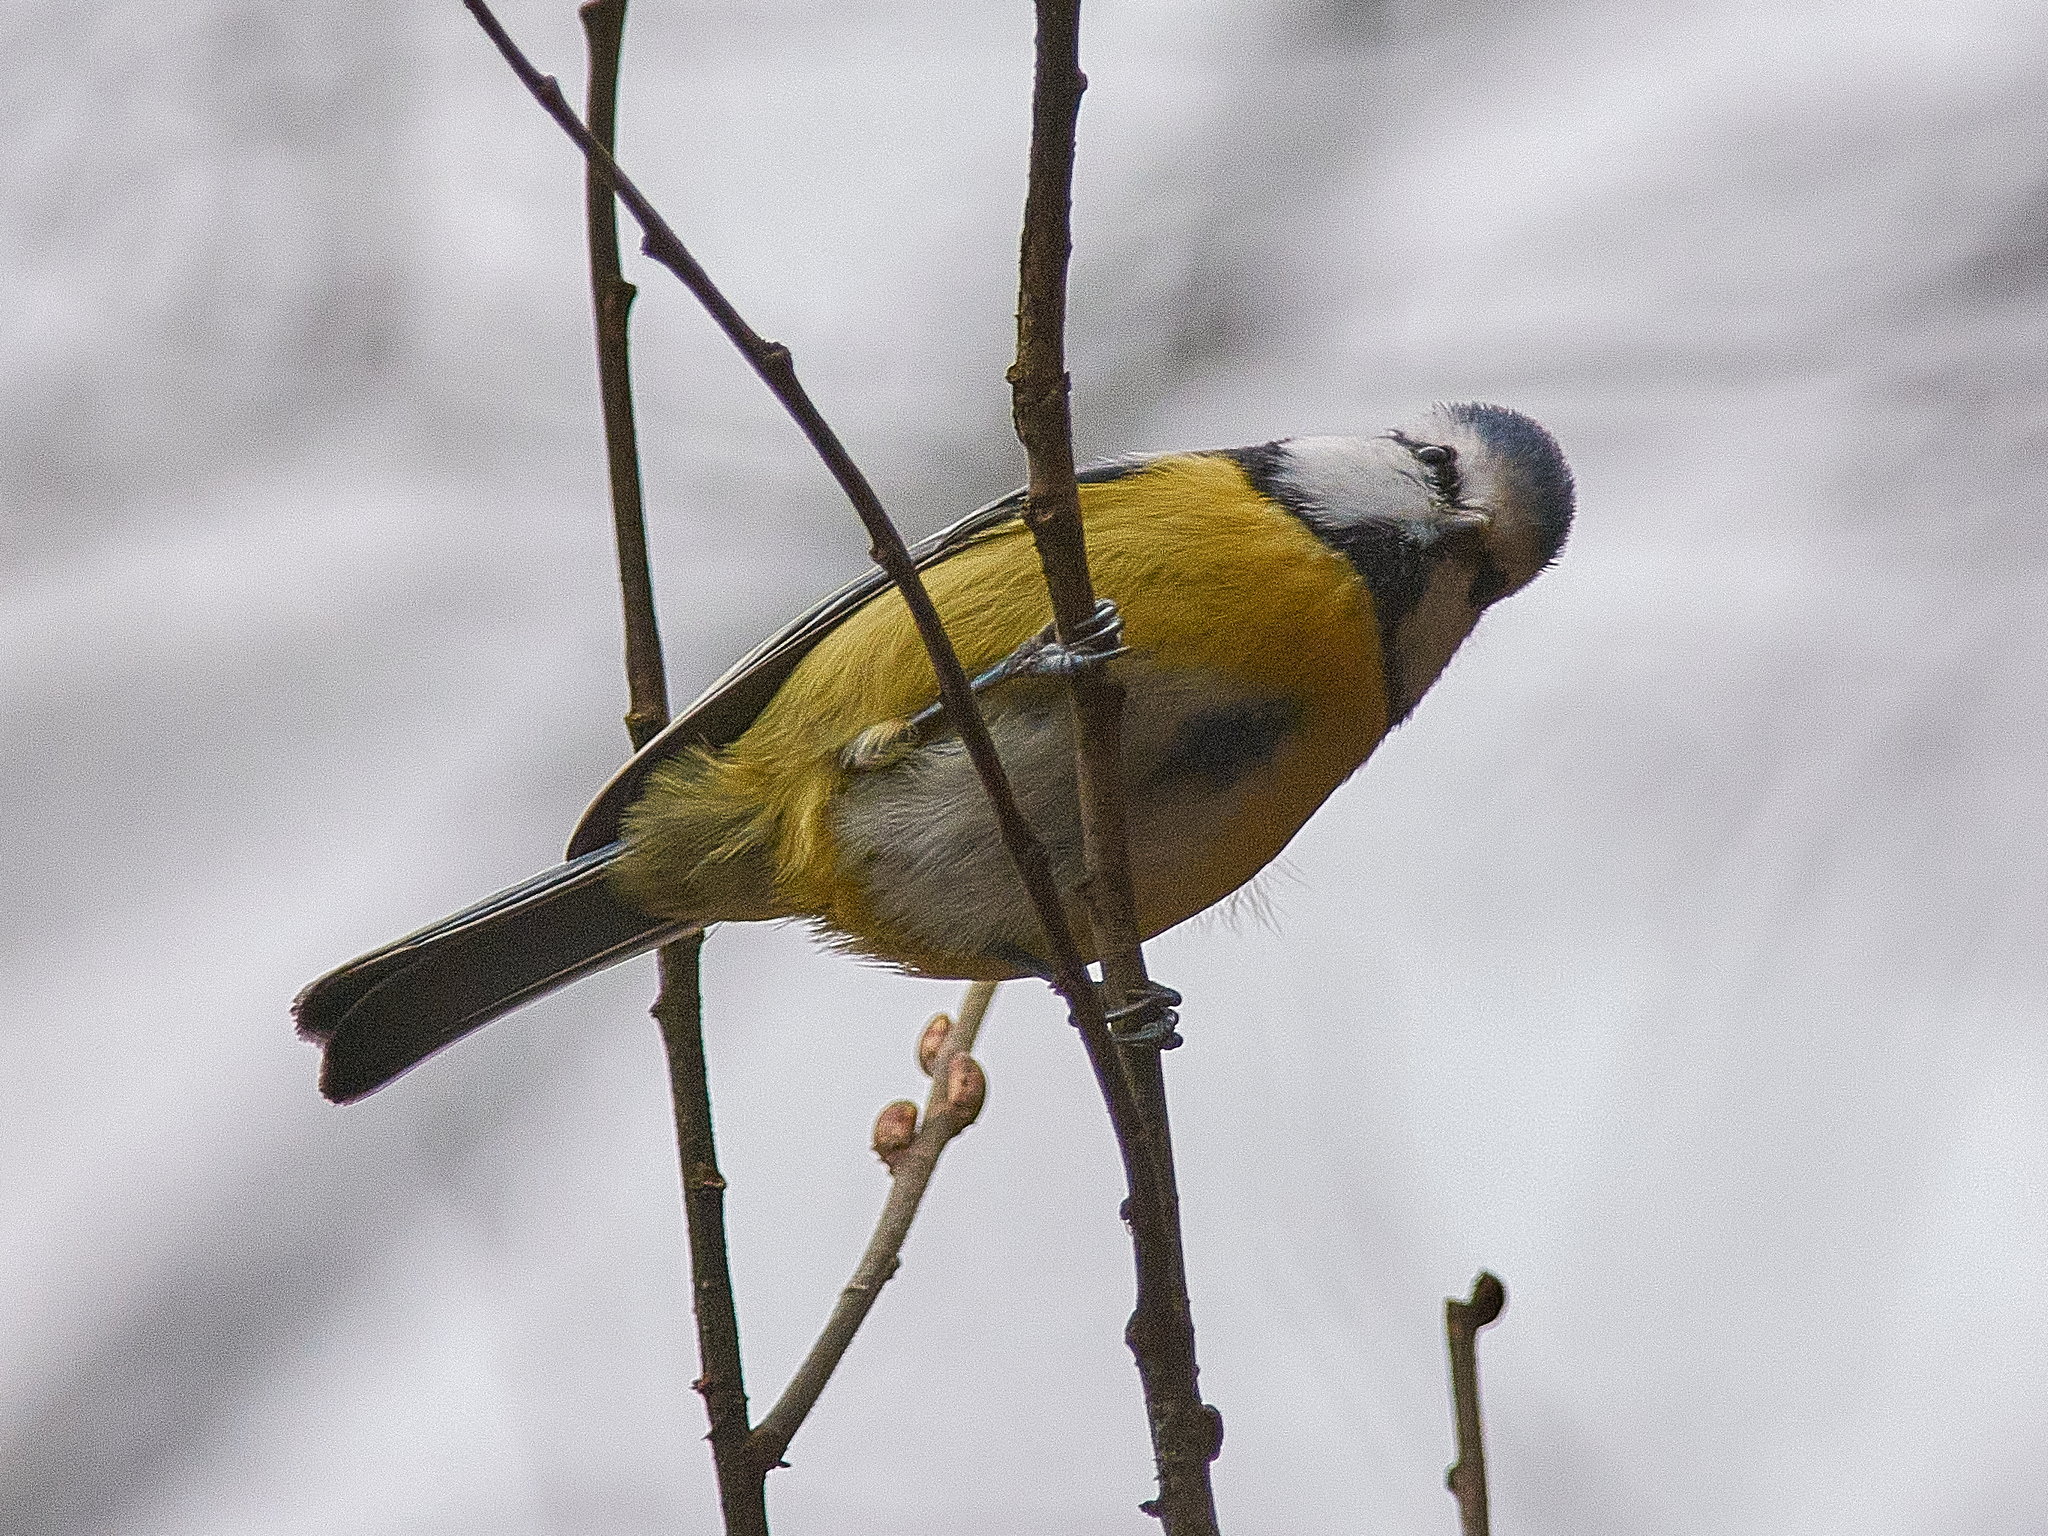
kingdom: Animalia
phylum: Chordata
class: Aves
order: Passeriformes
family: Paridae
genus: Cyanistes
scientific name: Cyanistes caeruleus
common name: Eurasian blue tit
